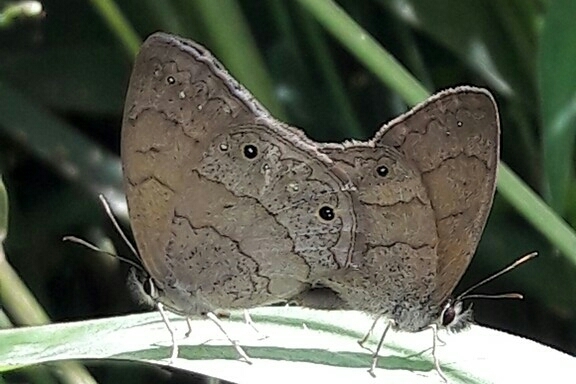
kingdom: Animalia
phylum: Arthropoda
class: Insecta
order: Lepidoptera
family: Nymphalidae
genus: Euptychia
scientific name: Euptychia Cissia eous
